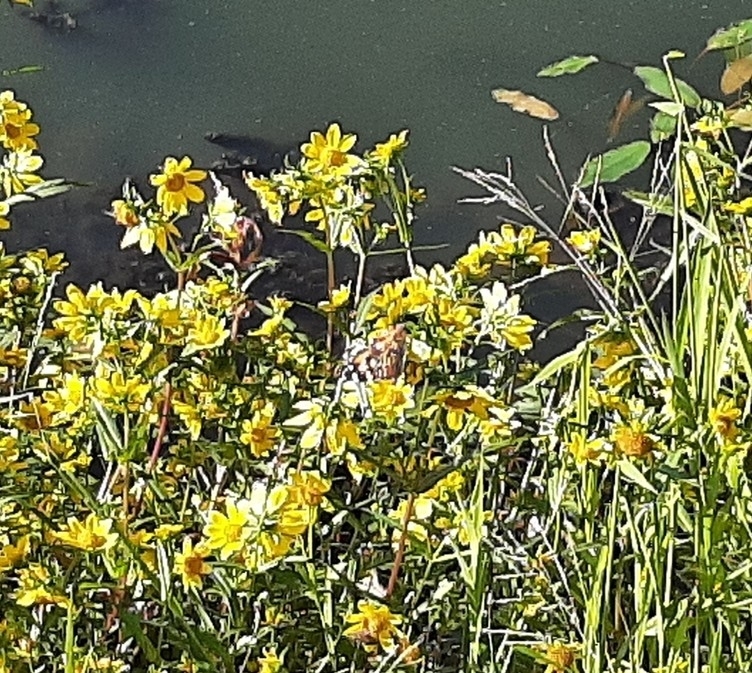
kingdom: Animalia
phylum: Arthropoda
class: Insecta
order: Lepidoptera
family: Nymphalidae
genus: Vanessa
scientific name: Vanessa cardui
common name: Painted lady
